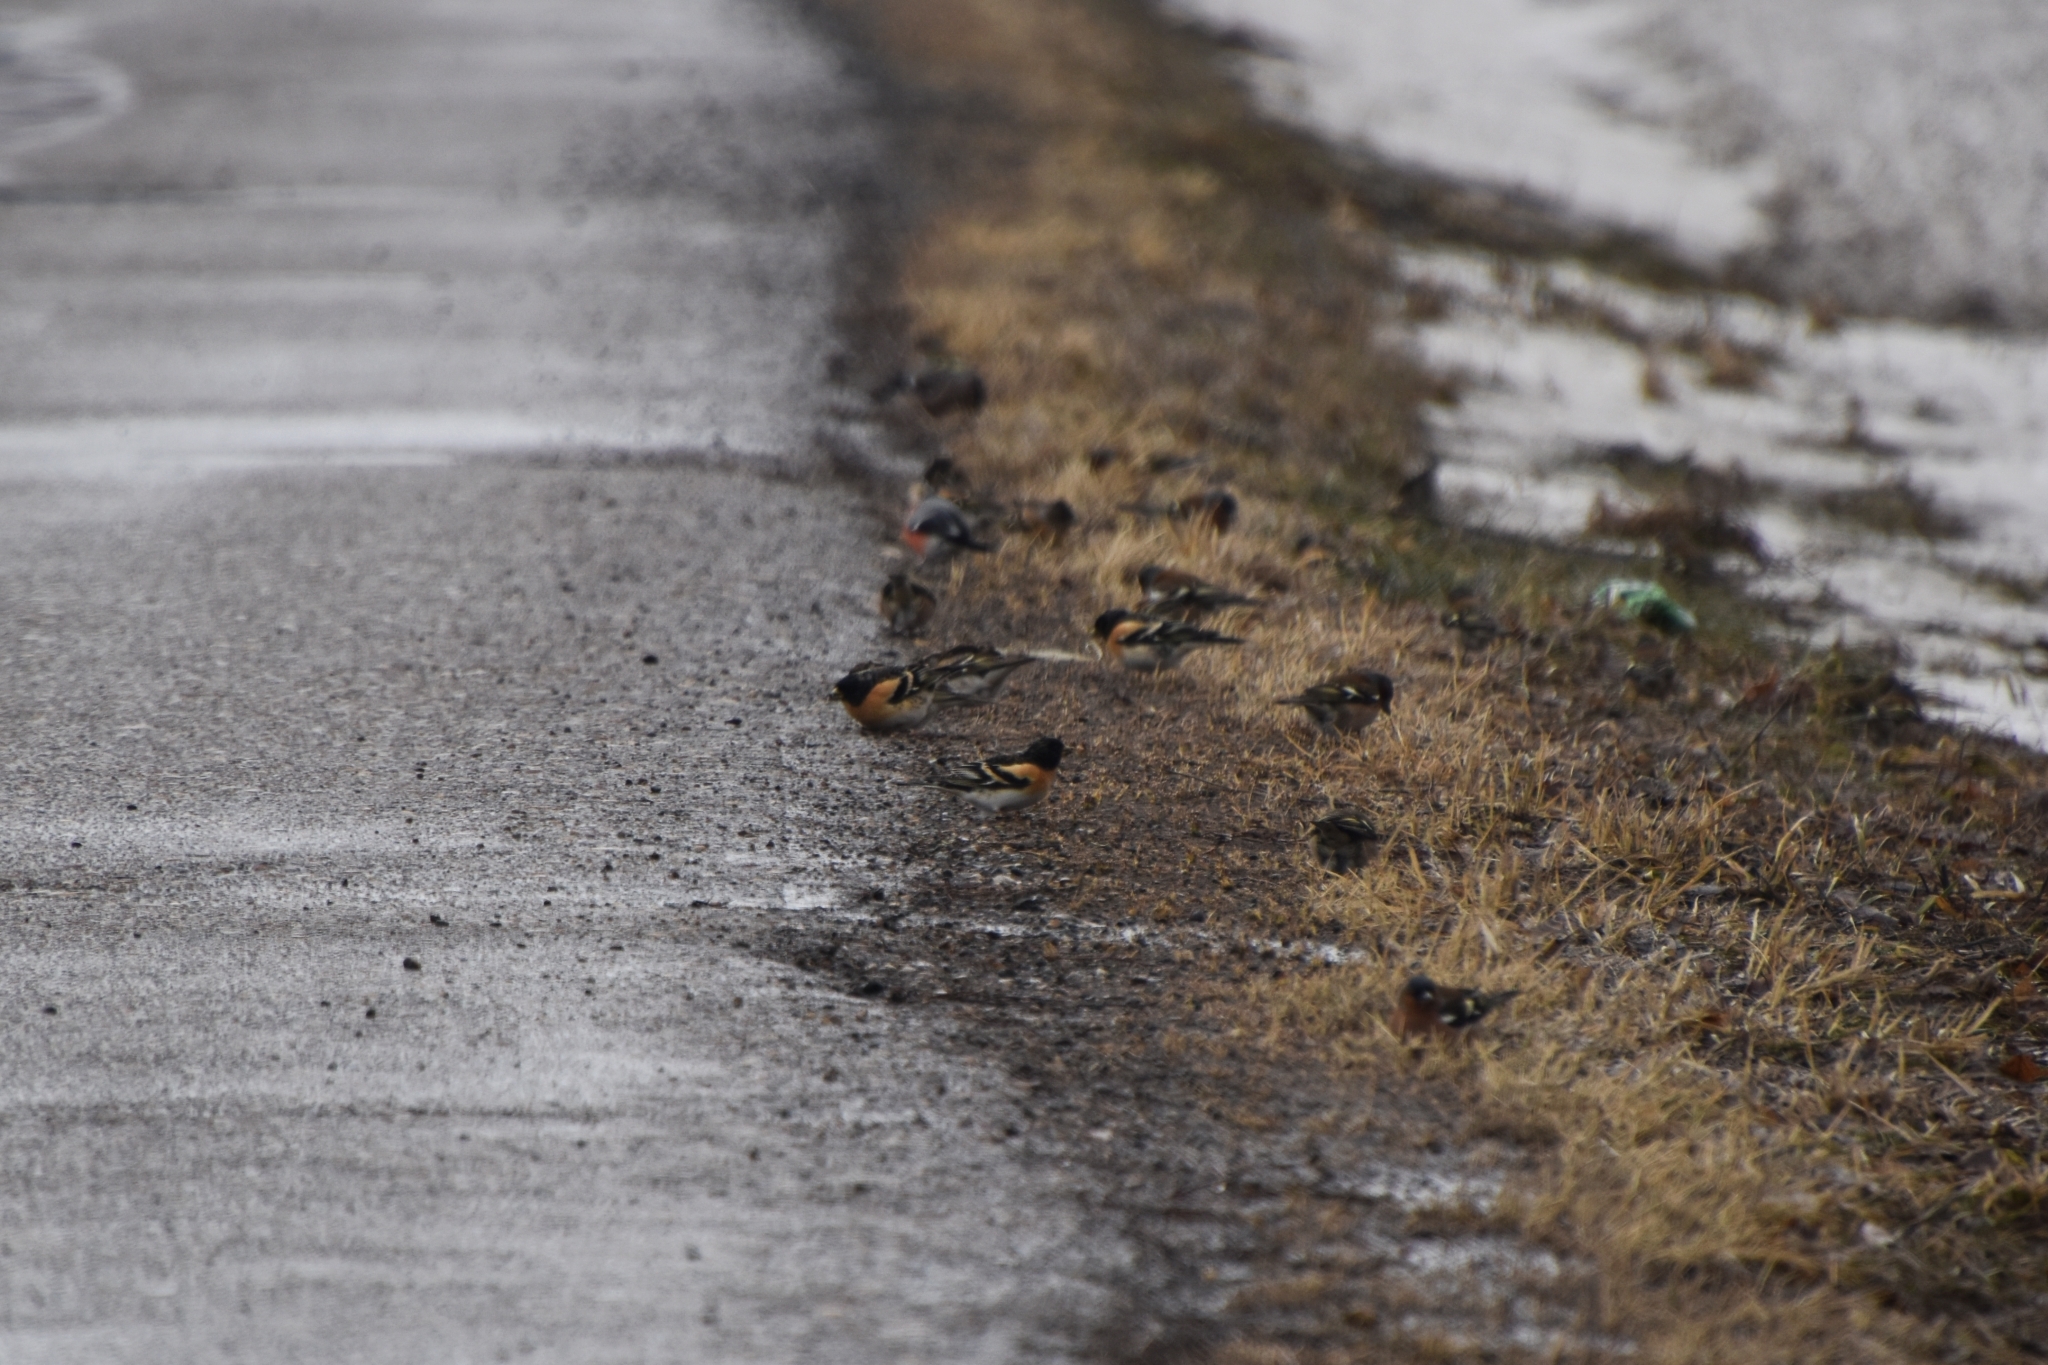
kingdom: Animalia
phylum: Chordata
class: Aves
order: Passeriformes
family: Fringillidae
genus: Fringilla
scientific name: Fringilla montifringilla
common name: Brambling
